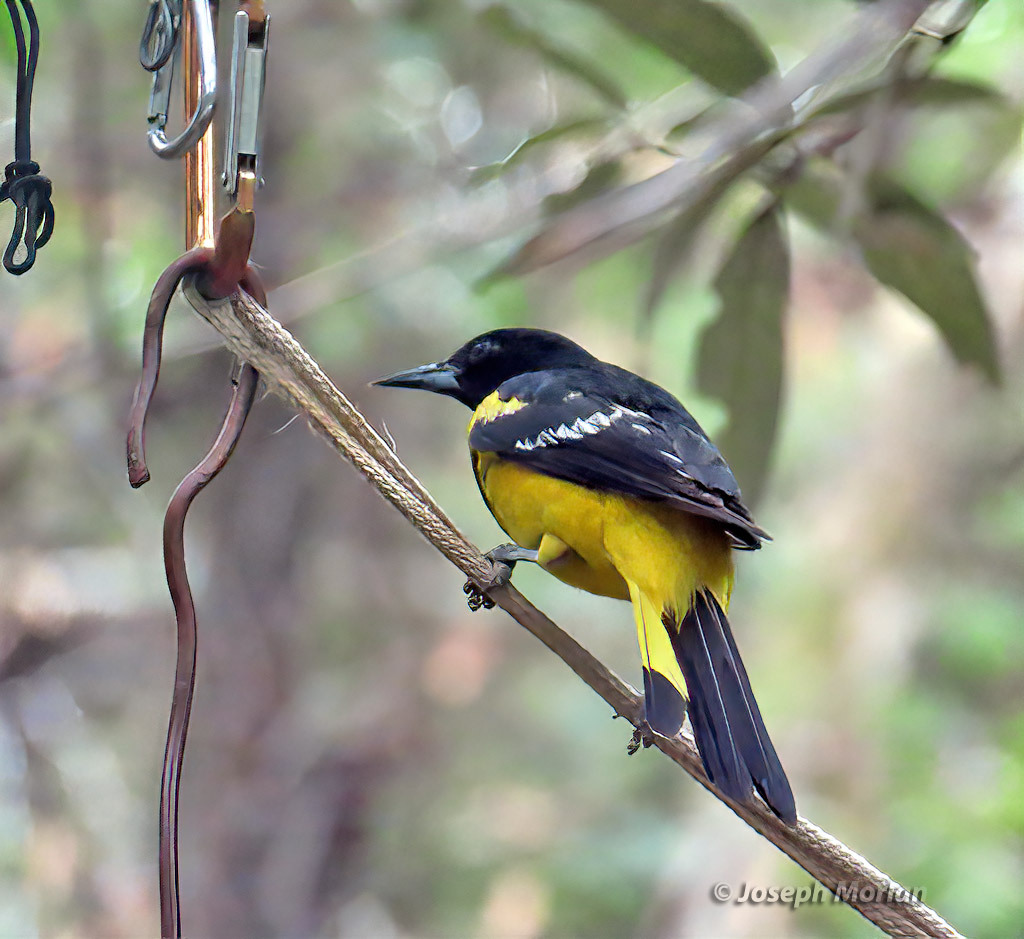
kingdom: Animalia
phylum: Chordata
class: Aves
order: Passeriformes
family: Icteridae
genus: Icterus
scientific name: Icterus parisorum
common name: Scott's oriole
